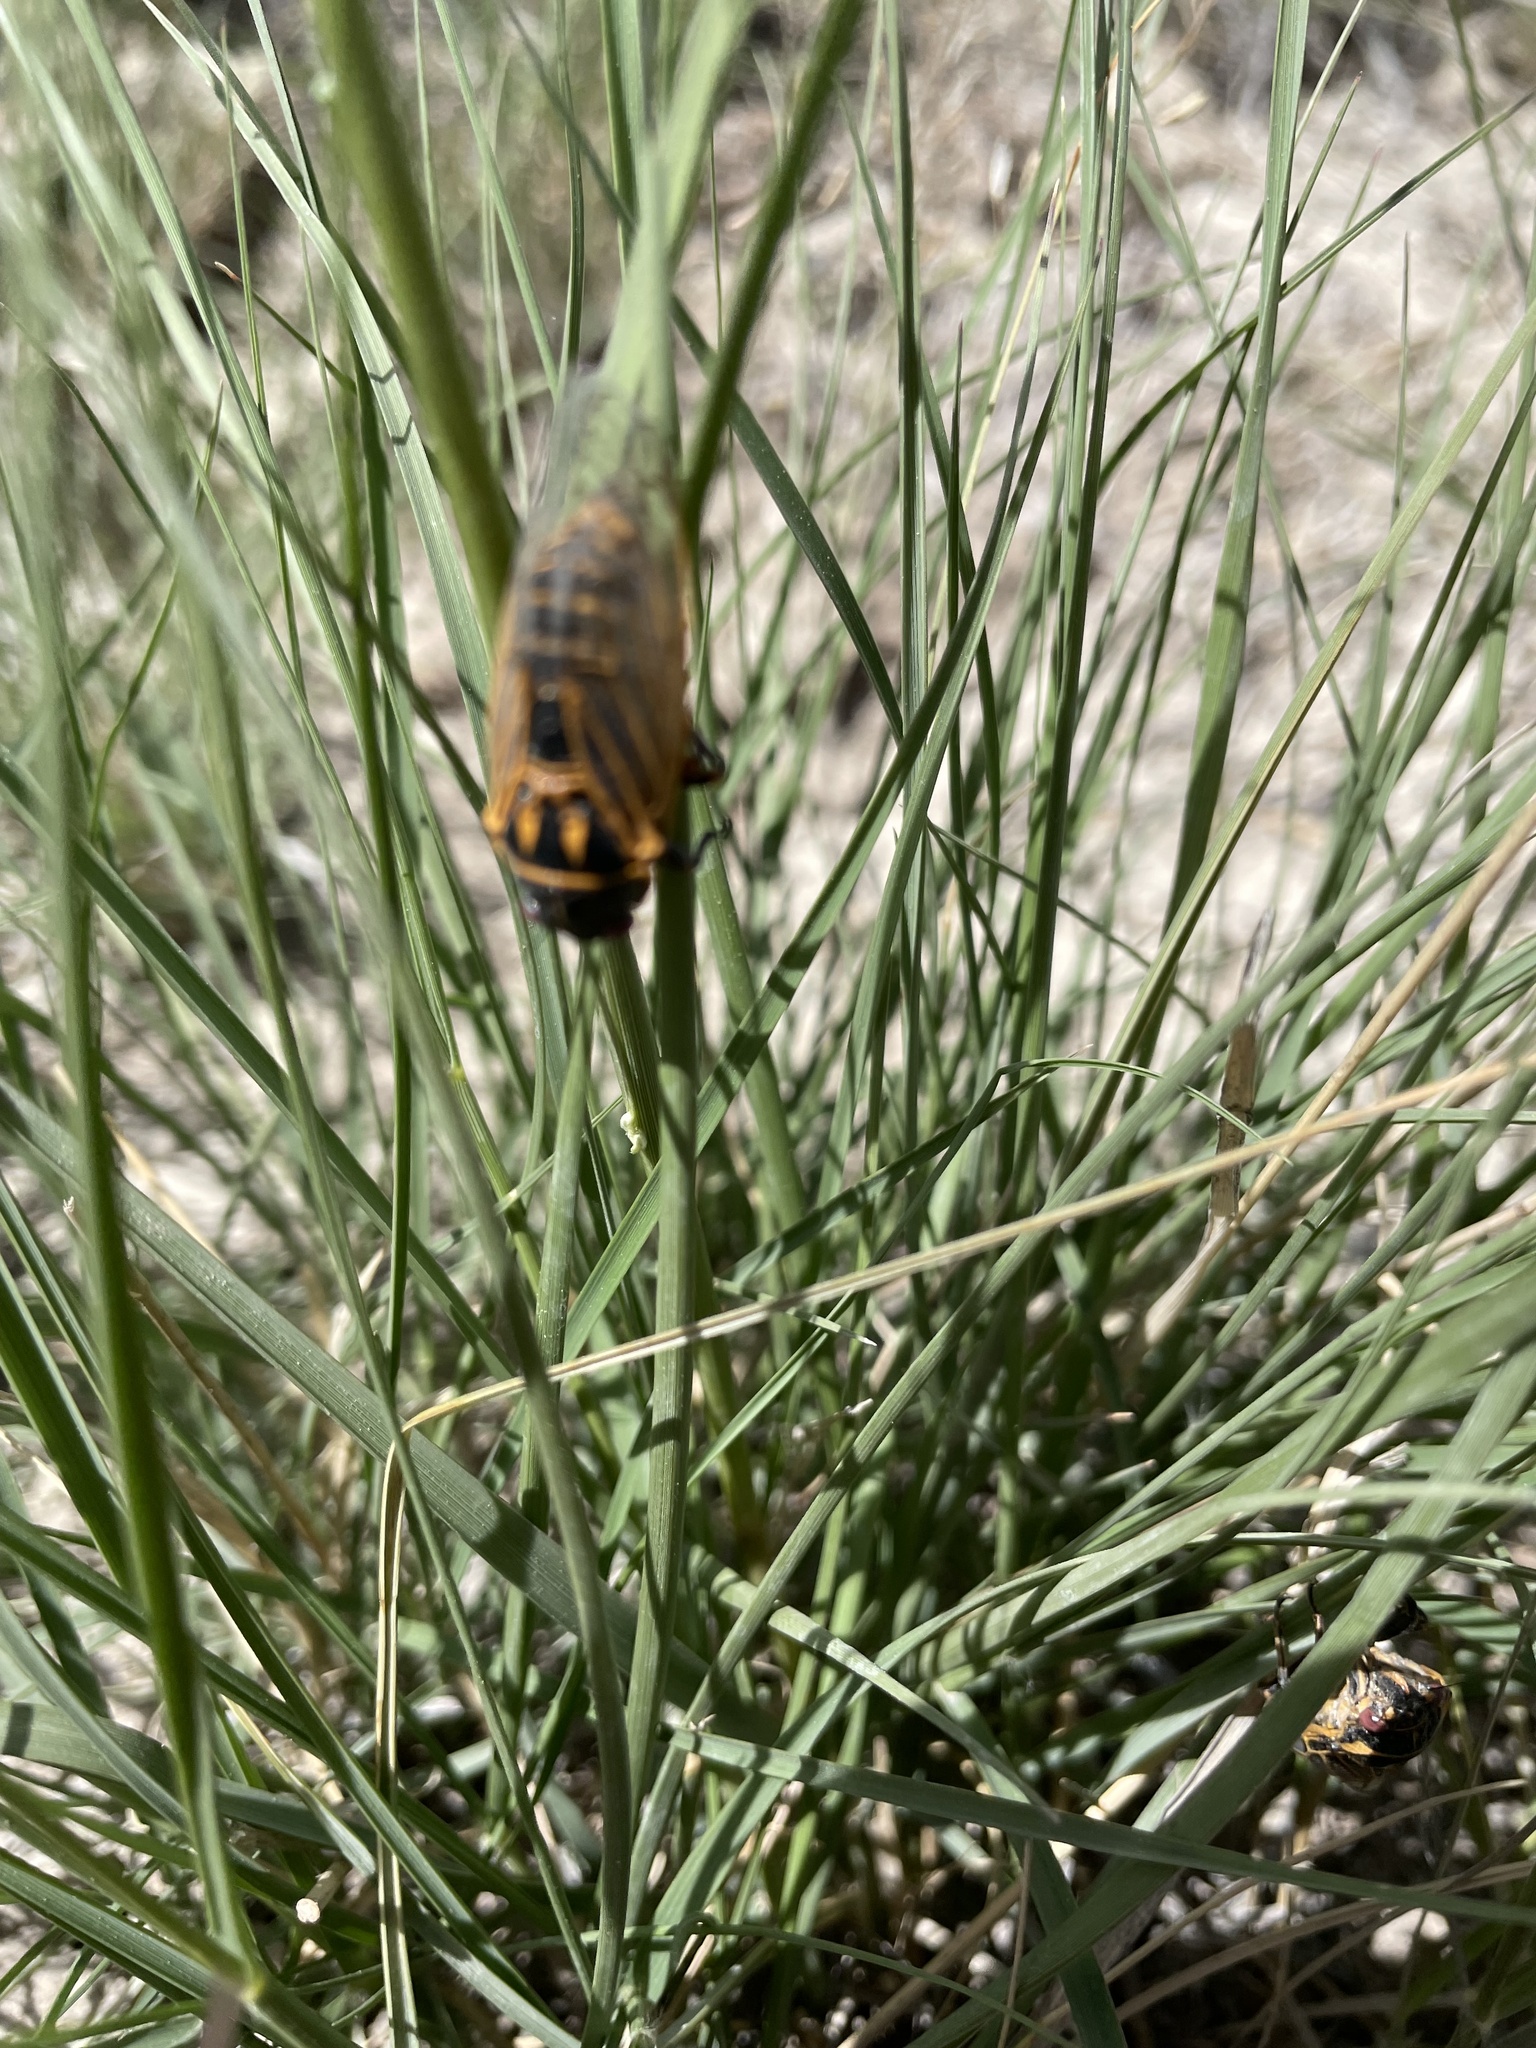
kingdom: Animalia
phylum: Arthropoda
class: Insecta
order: Hemiptera
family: Cicadidae
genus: Okanagana
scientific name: Okanagana synodica
